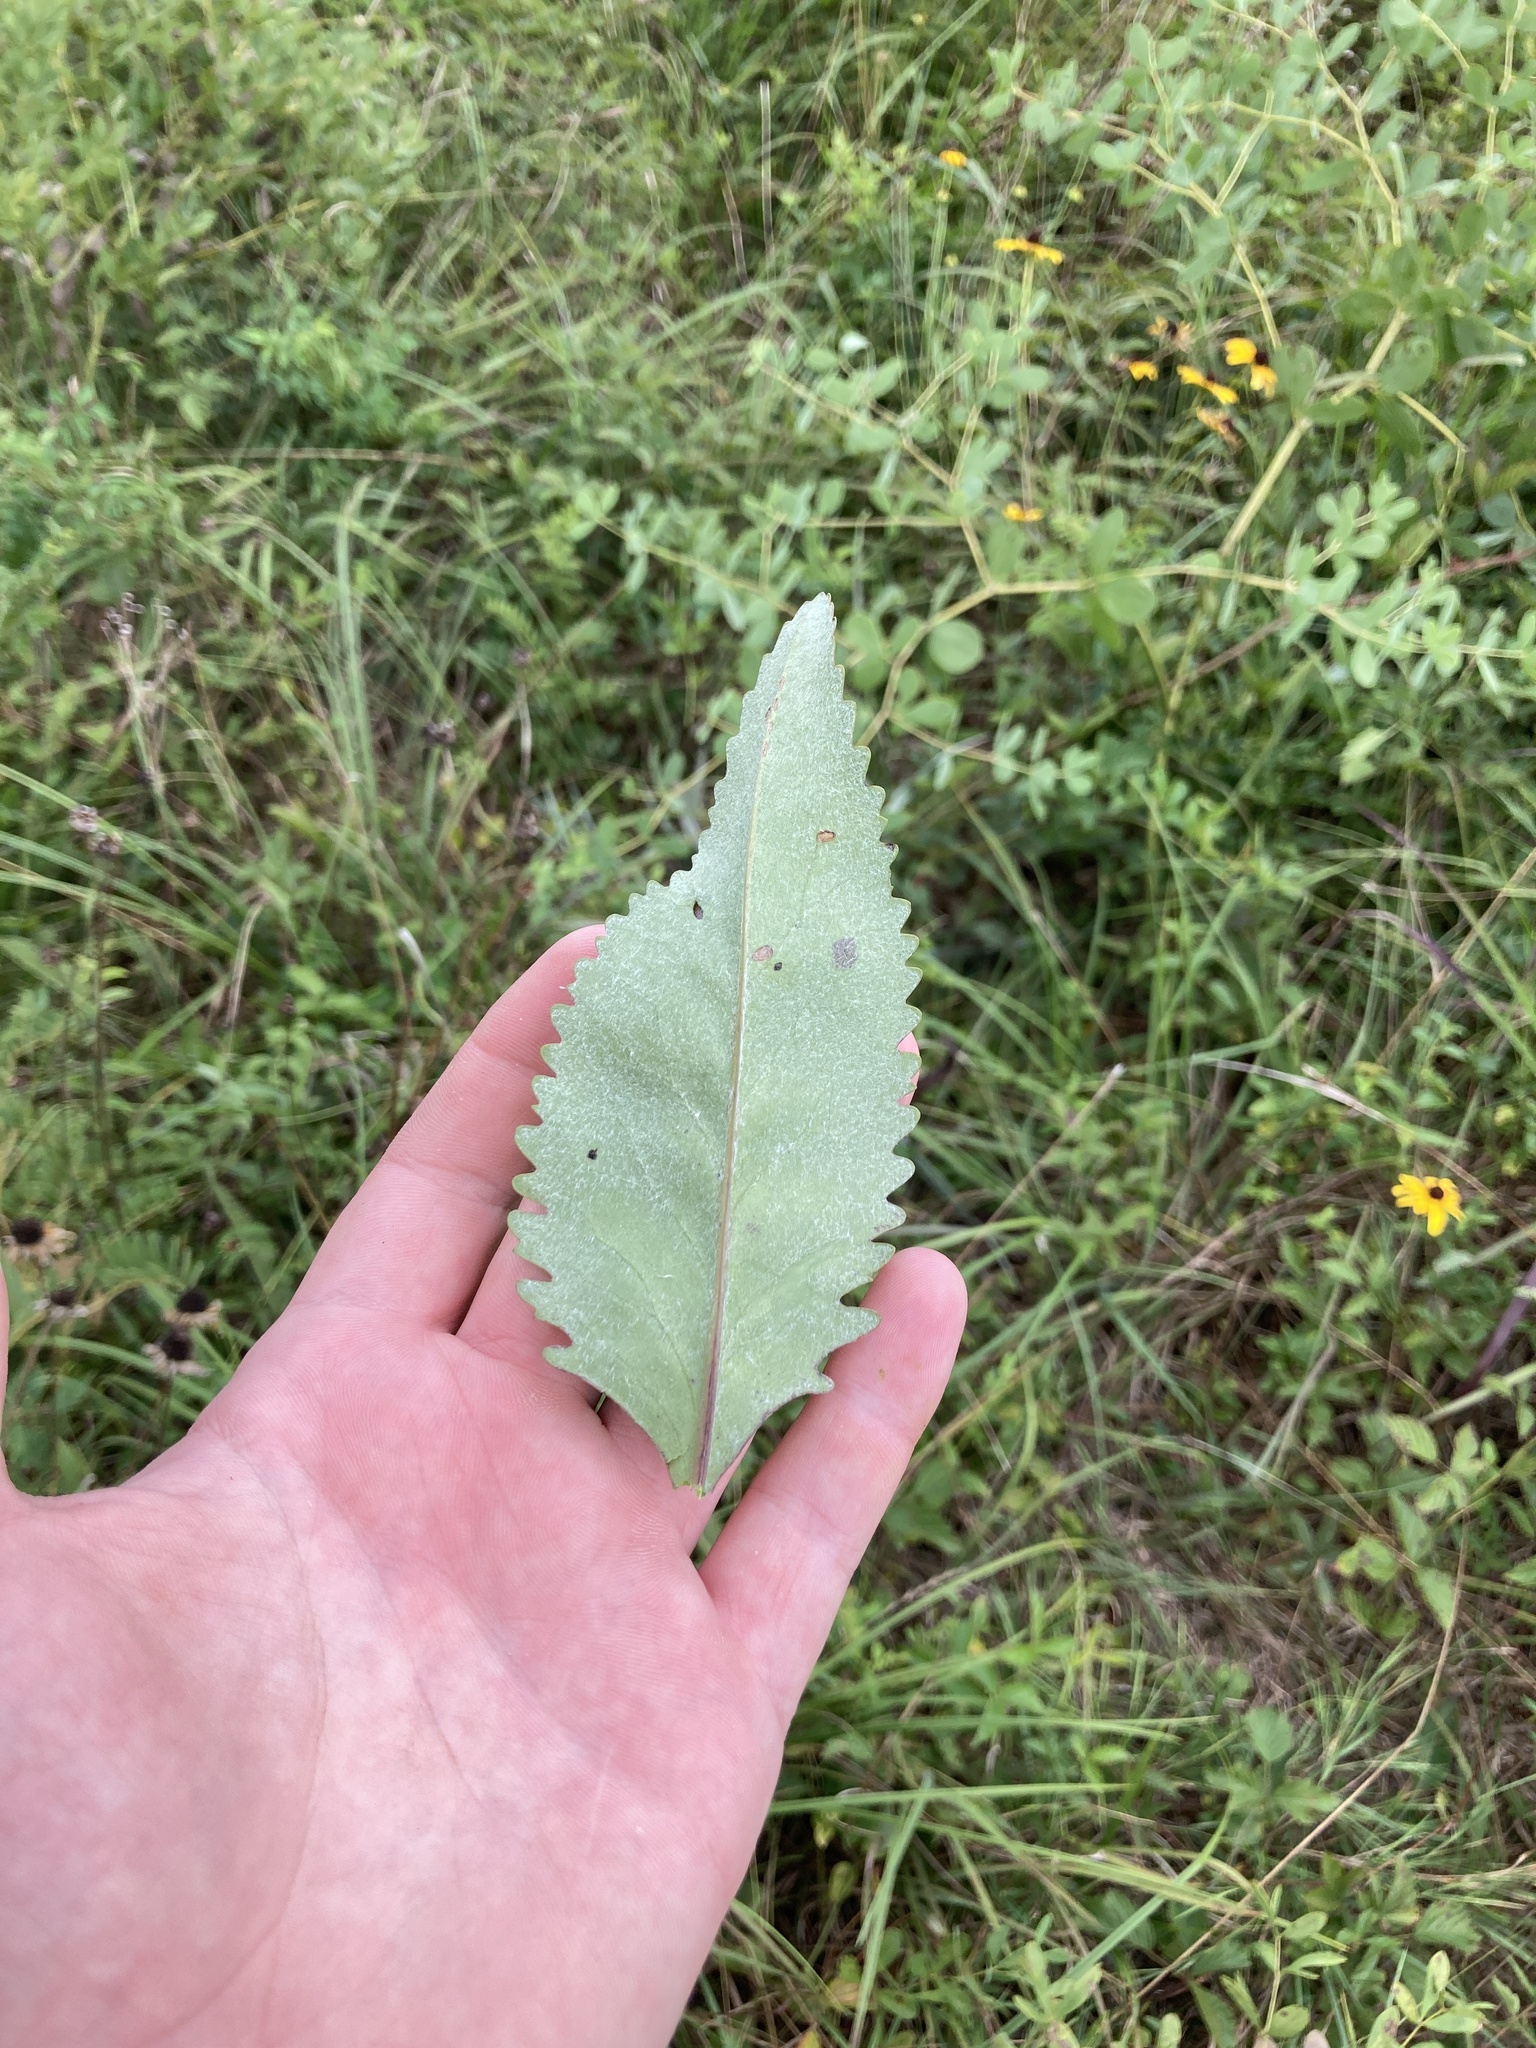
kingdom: Plantae
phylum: Tracheophyta
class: Magnoliopsida
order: Asterales
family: Asteraceae
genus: Packera
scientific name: Packera dubia
